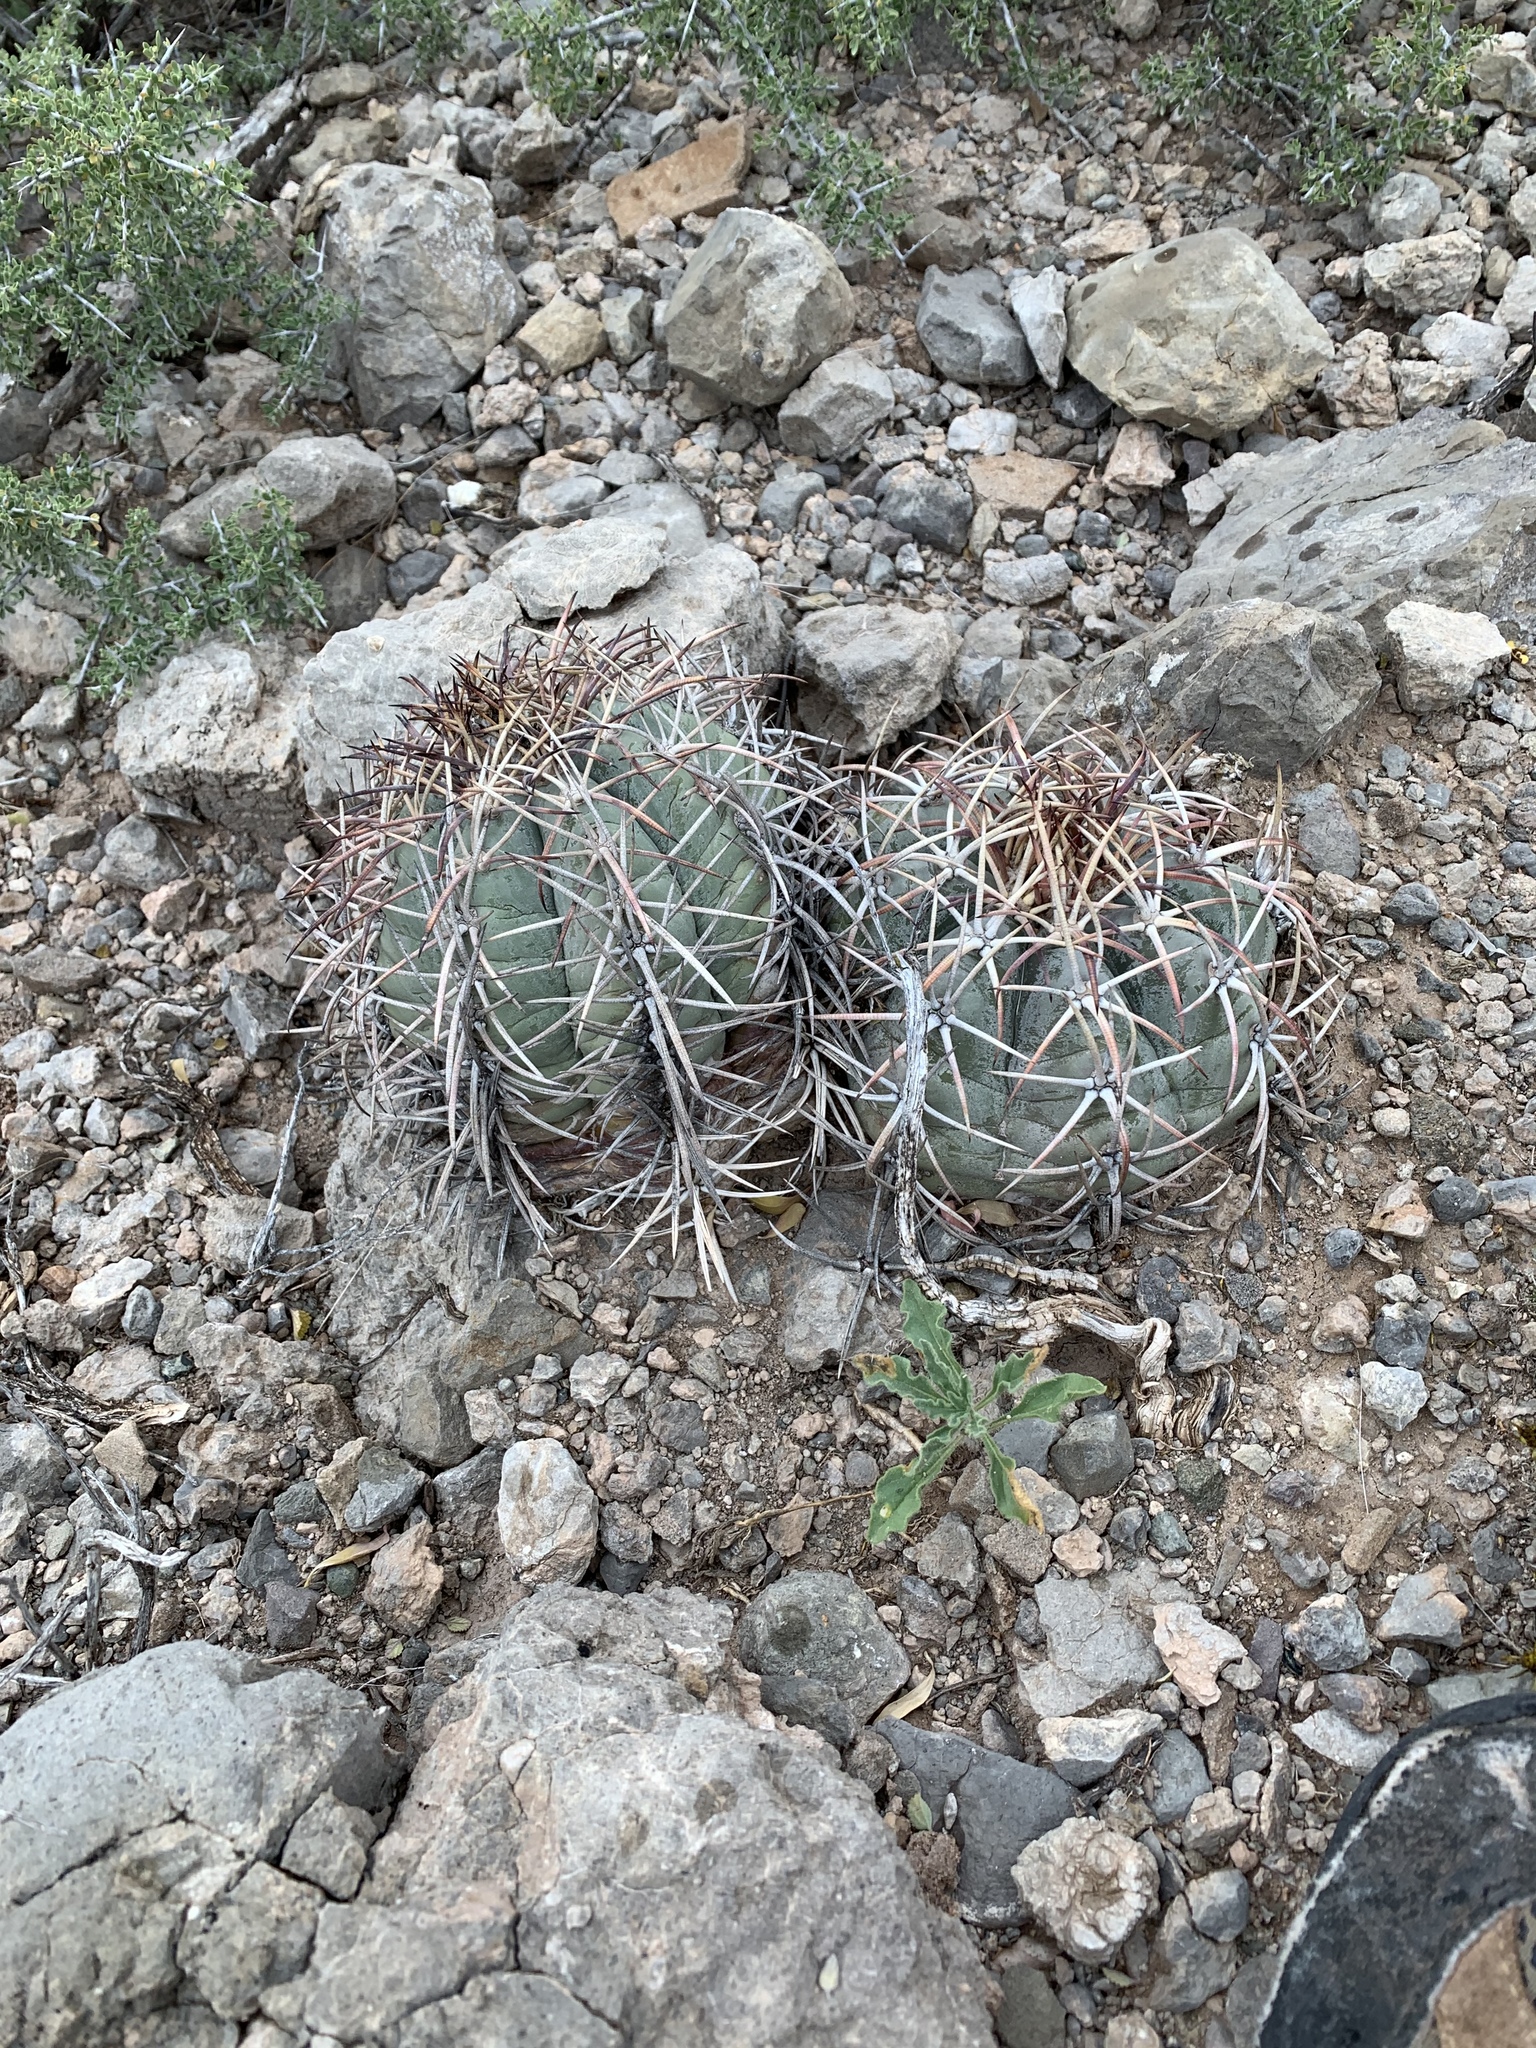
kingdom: Plantae
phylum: Tracheophyta
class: Magnoliopsida
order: Caryophyllales
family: Cactaceae
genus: Echinocactus
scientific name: Echinocactus horizonthalonius
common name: Devilshead
